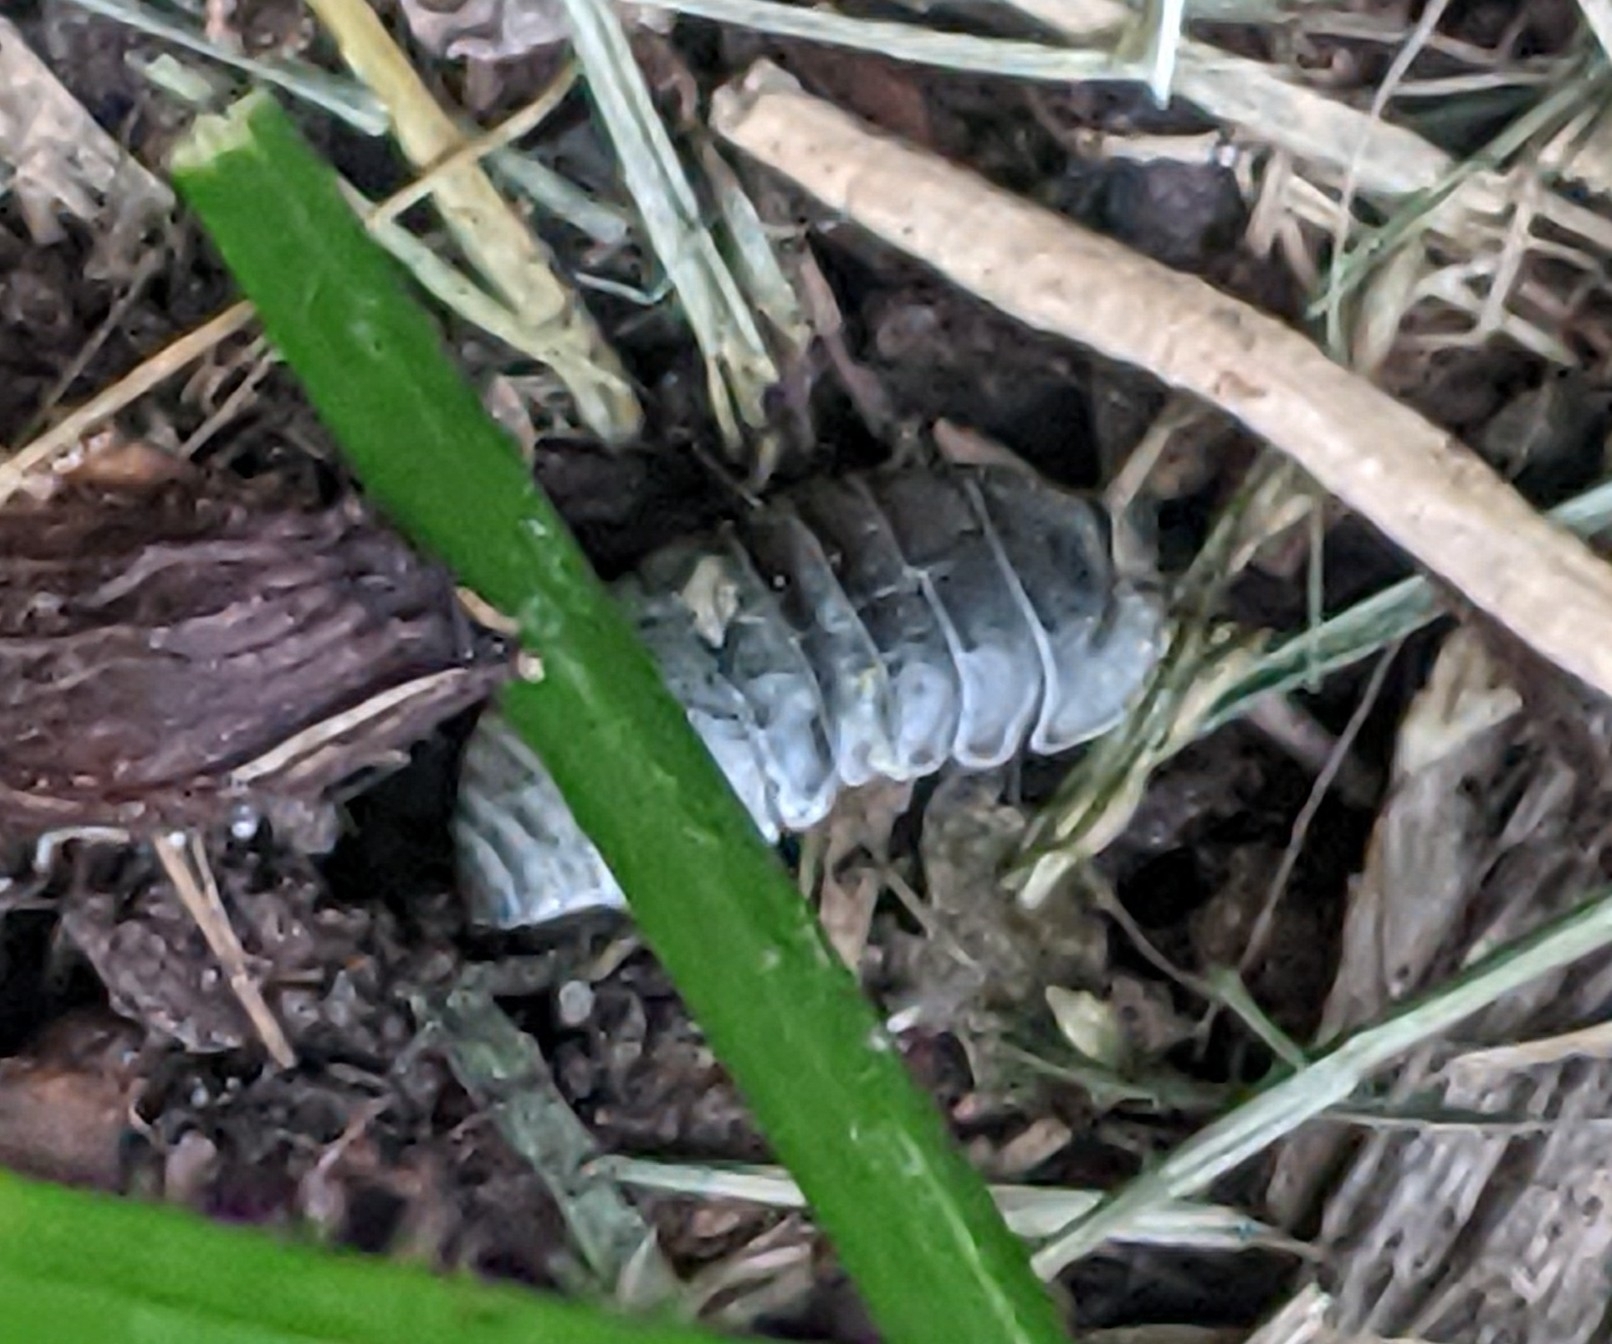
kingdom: Animalia
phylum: Arthropoda
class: Malacostraca
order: Isopoda
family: Armadillidiidae
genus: Armadillidium
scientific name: Armadillidium vulgare
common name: Common pill woodlouse
